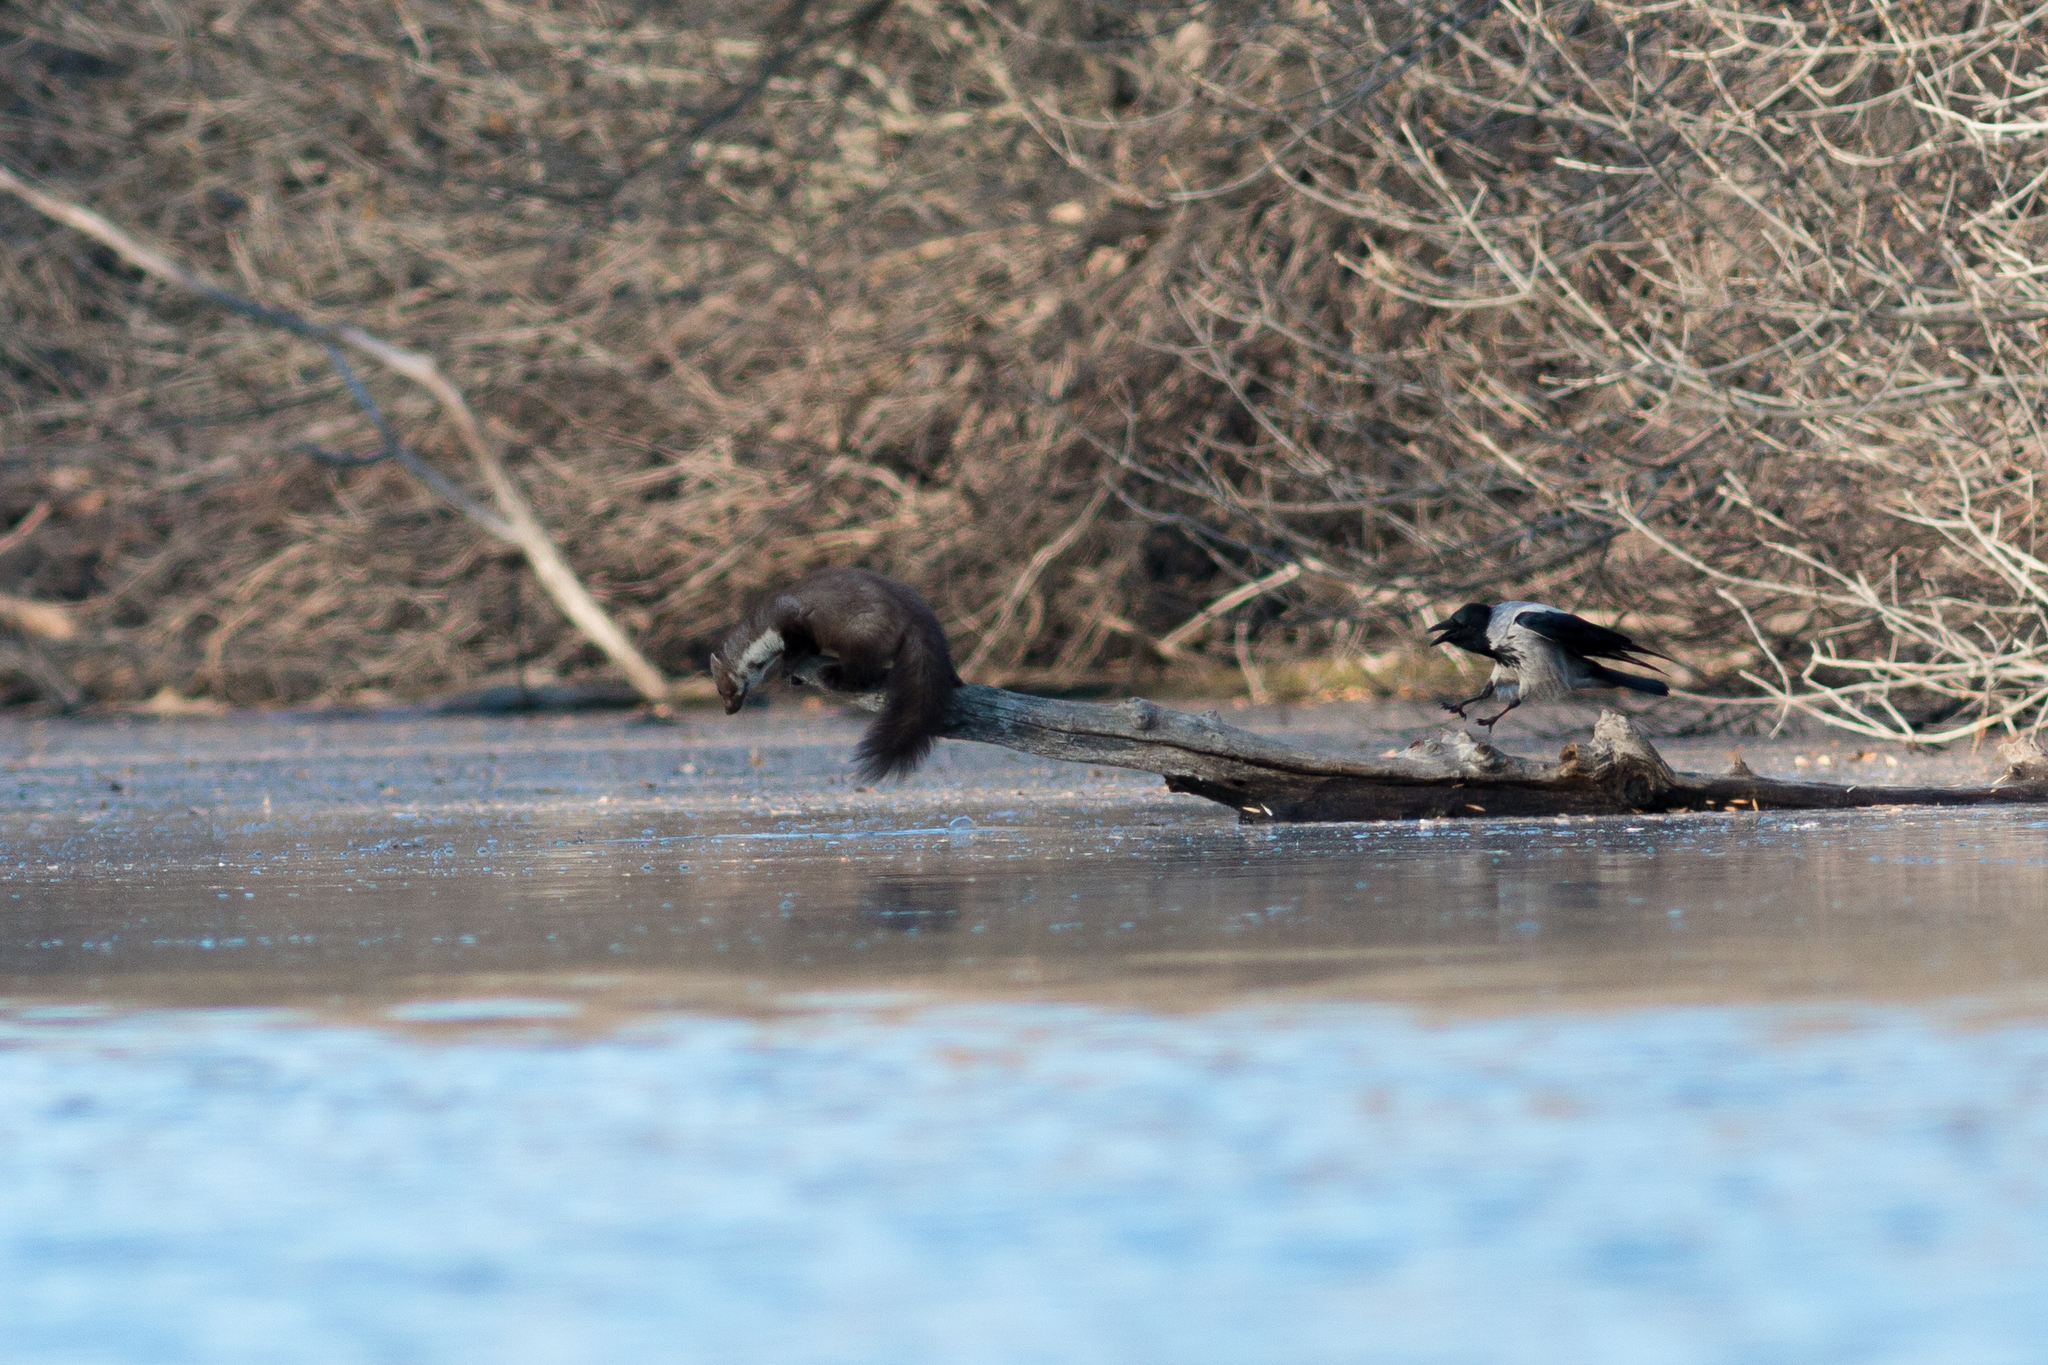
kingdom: Animalia
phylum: Chordata
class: Aves
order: Passeriformes
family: Corvidae
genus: Corvus
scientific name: Corvus cornix
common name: Hooded crow
